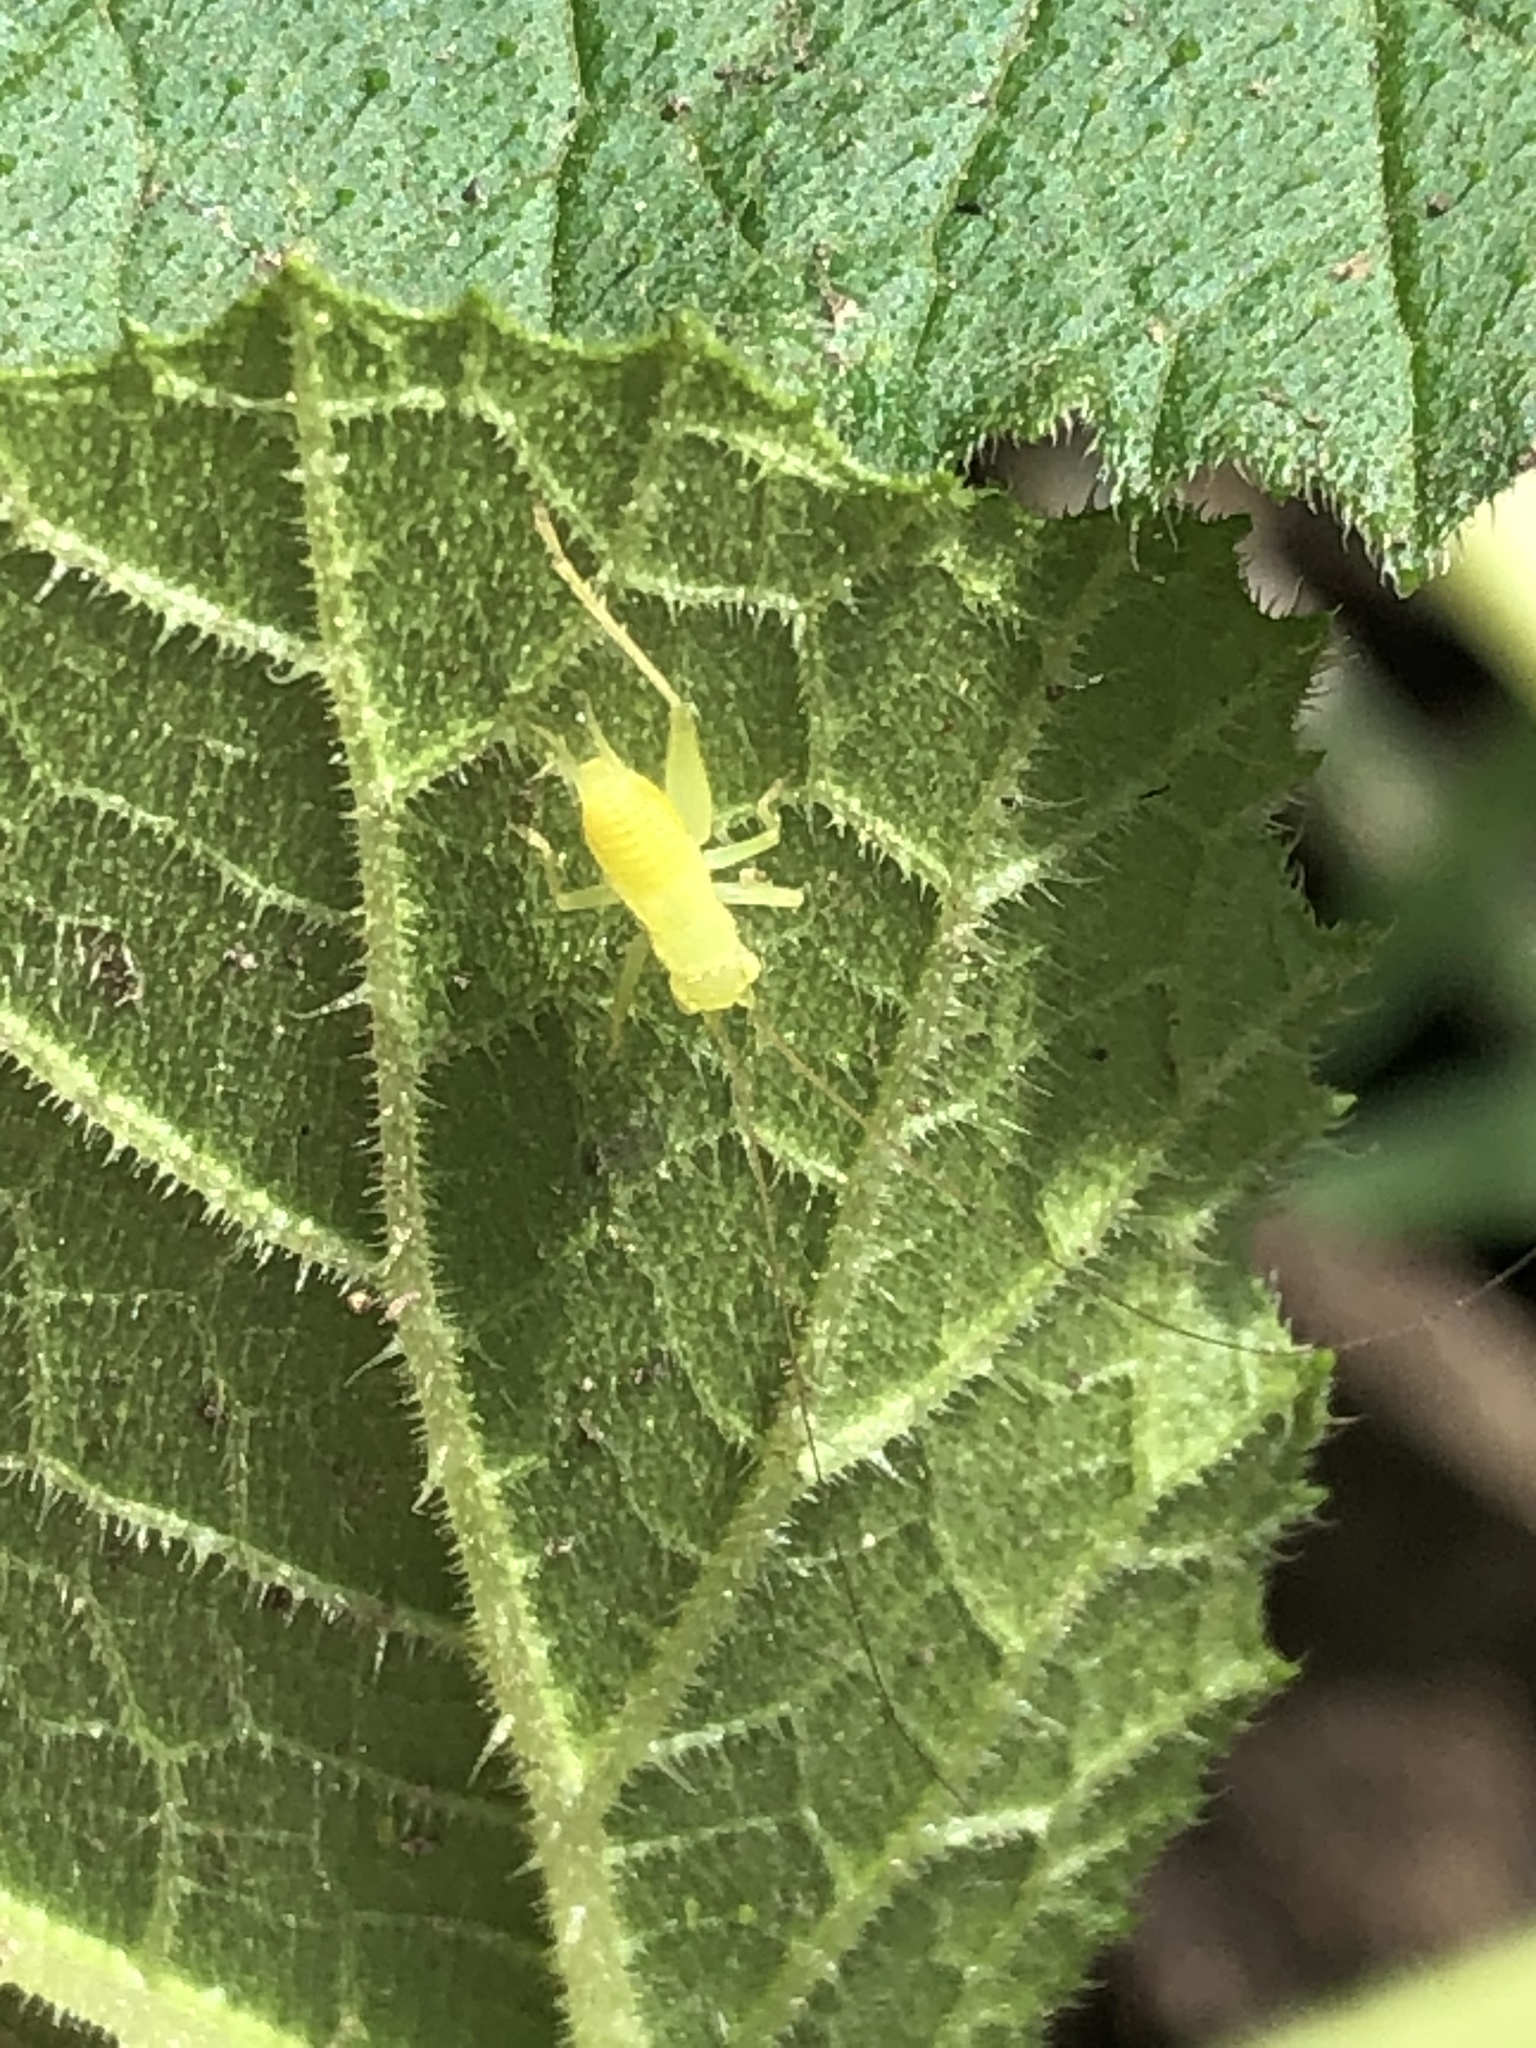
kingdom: Animalia
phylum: Arthropoda
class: Insecta
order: Orthoptera
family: Trigonidiidae
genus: Cyrtoxipha
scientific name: Cyrtoxipha columbiana
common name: Columbian trig
